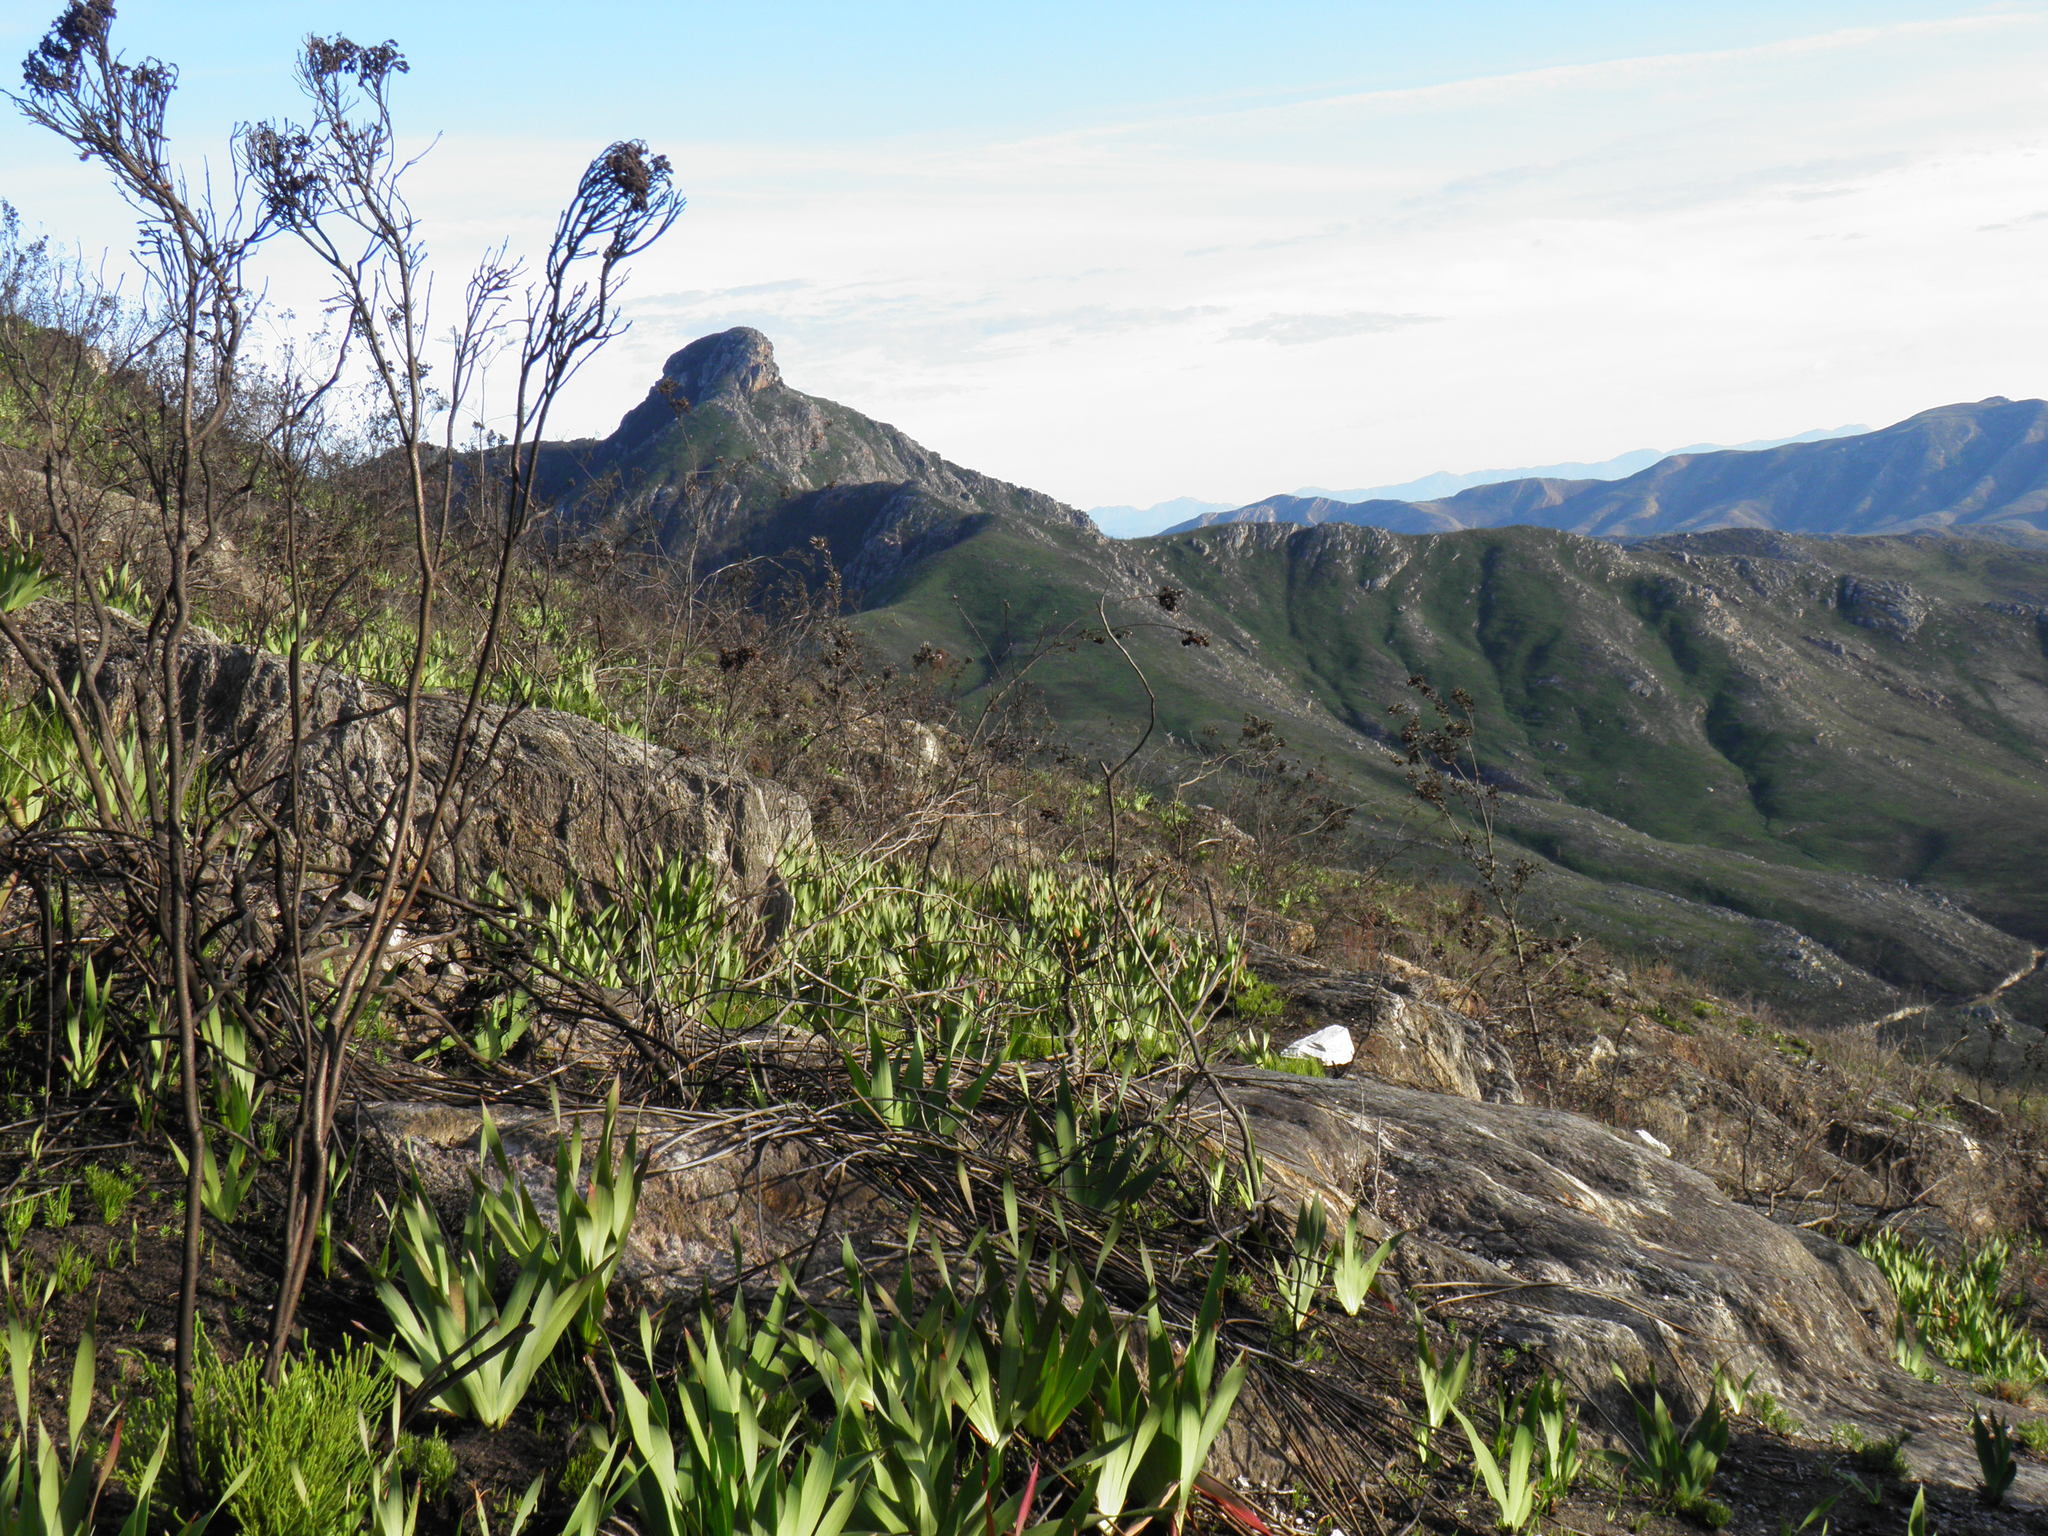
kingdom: Plantae
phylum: Tracheophyta
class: Liliopsida
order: Asparagales
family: Iridaceae
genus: Watsonia
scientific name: Watsonia fourcadei
